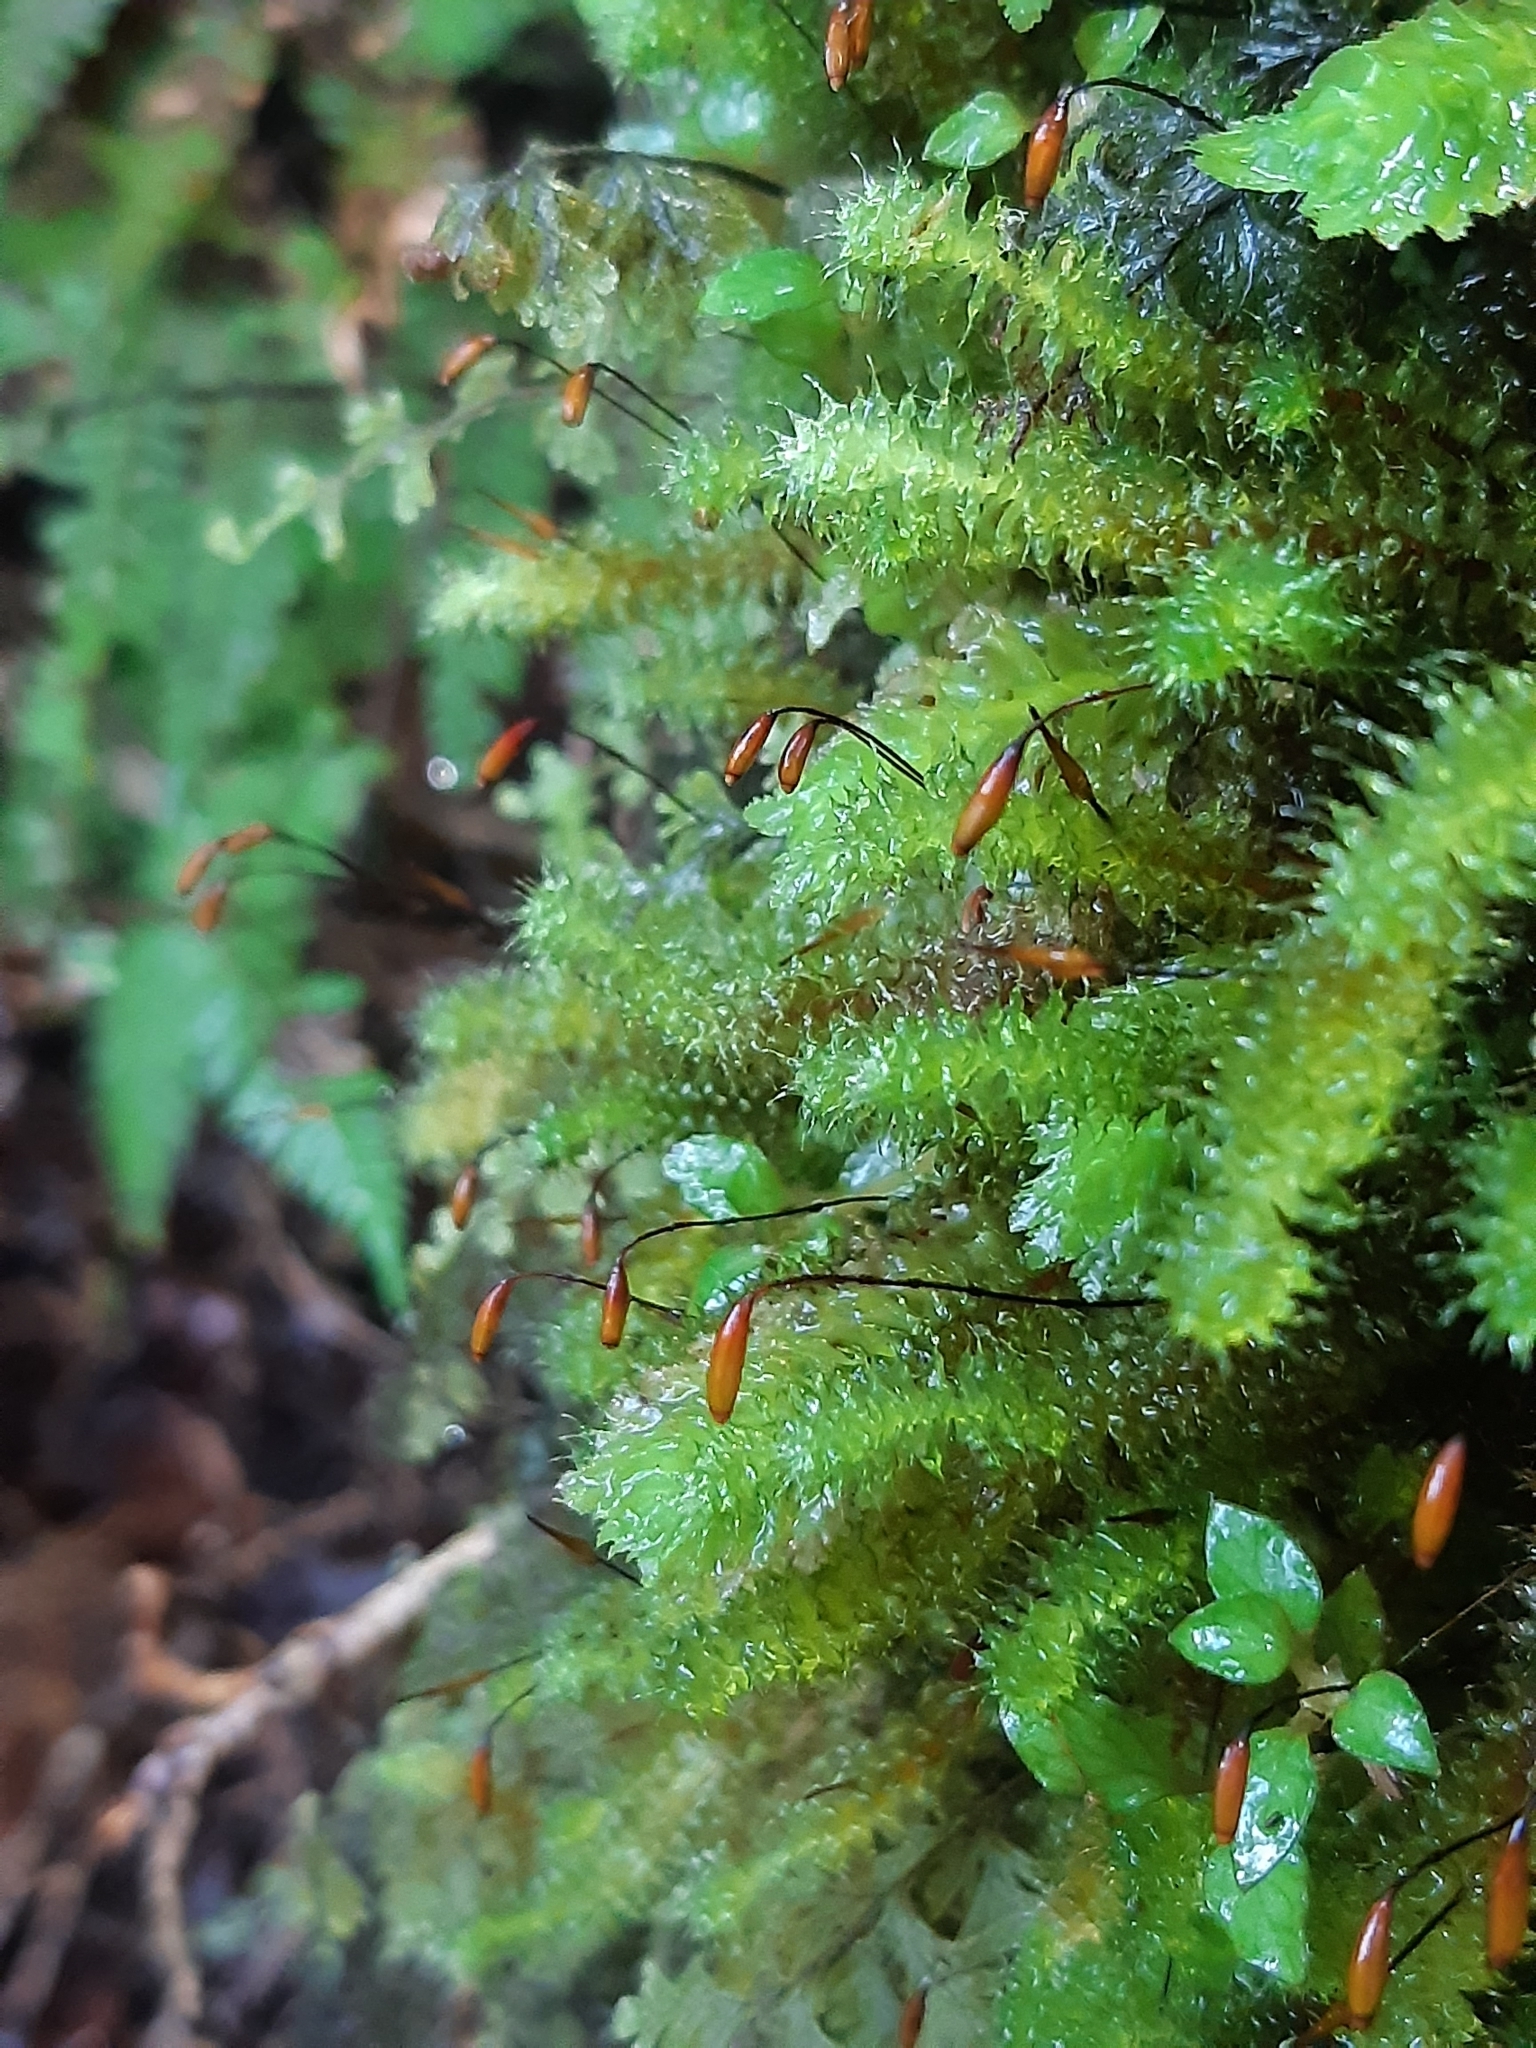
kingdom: Plantae
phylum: Bryophyta
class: Bryopsida
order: Ptychomniales
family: Ptychomniaceae
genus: Ptychomnion
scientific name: Ptychomnion aciculare
